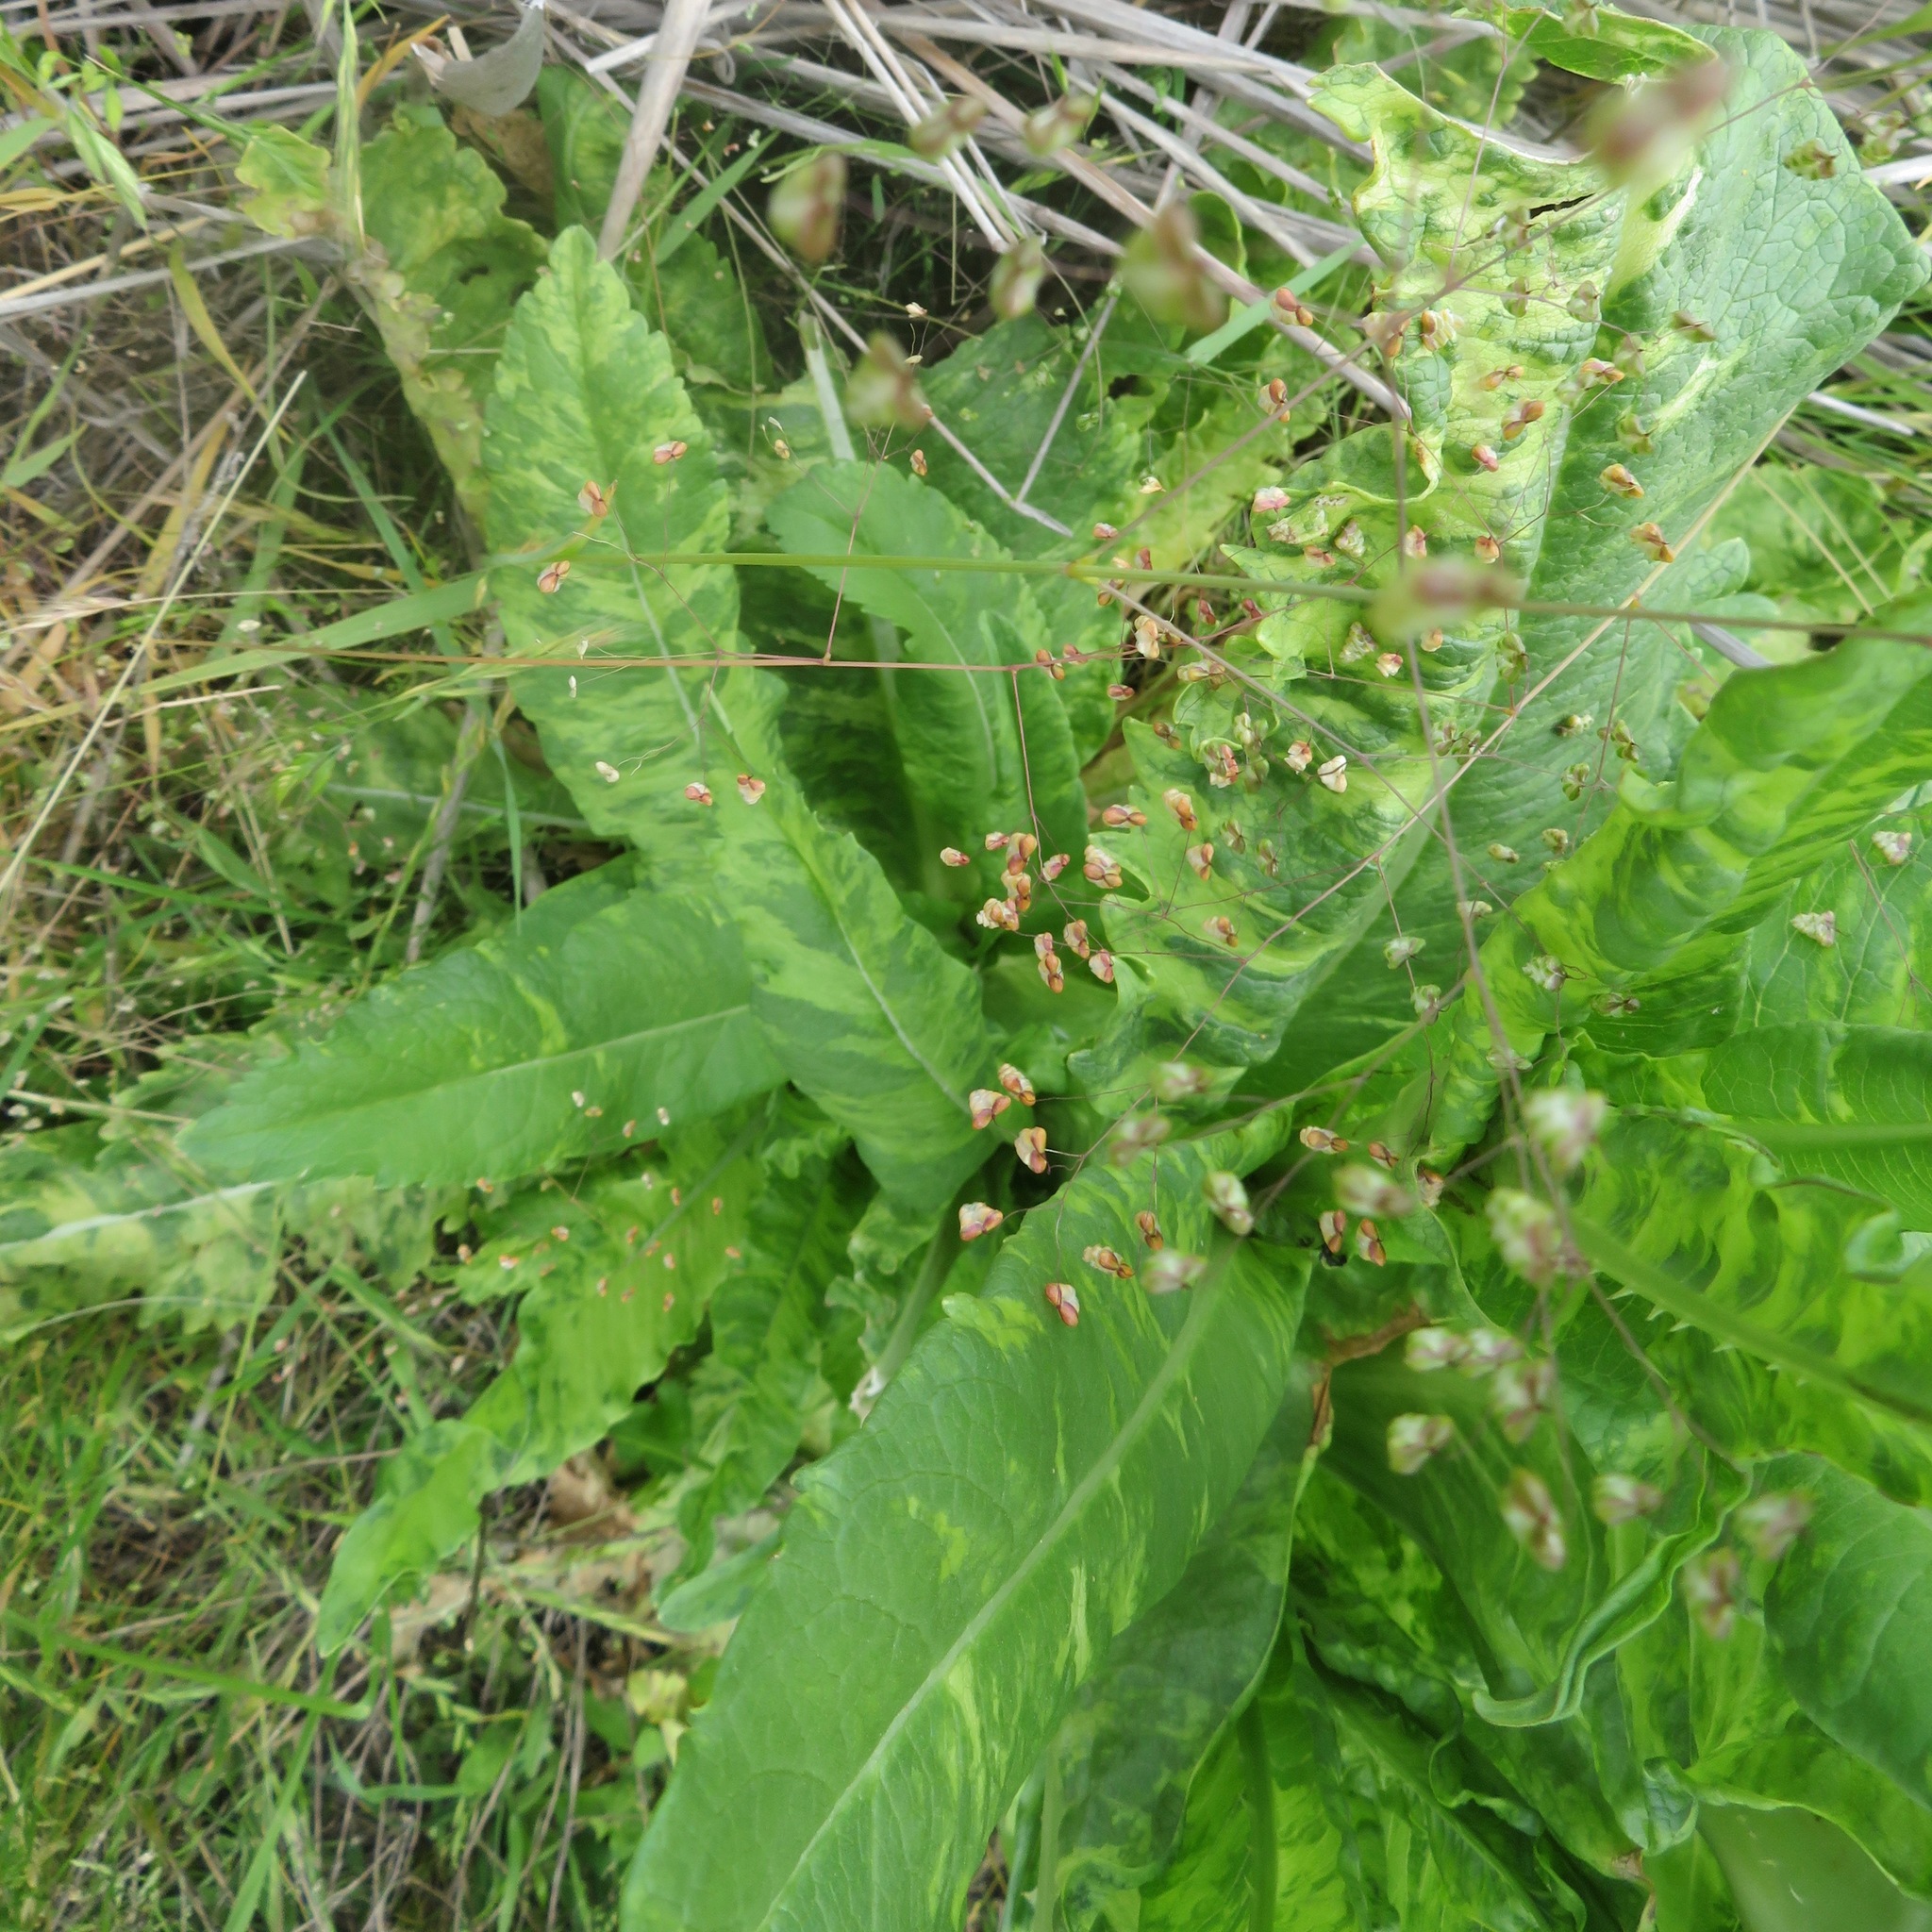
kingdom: Plantae
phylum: Tracheophyta
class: Liliopsida
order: Poales
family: Poaceae
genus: Briza
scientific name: Briza minor
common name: Lesser quaking-grass
